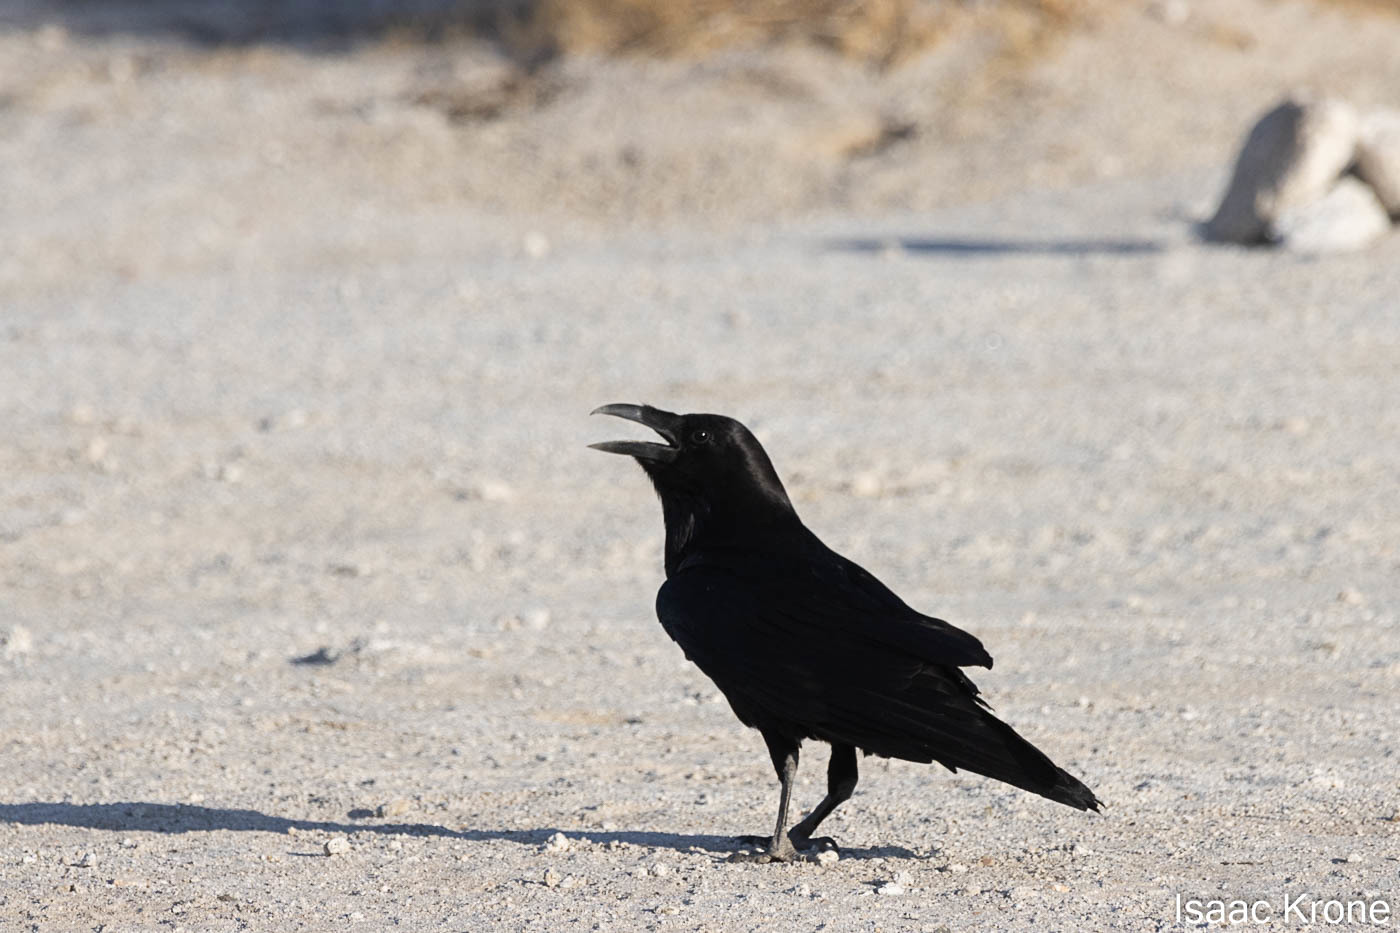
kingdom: Animalia
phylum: Chordata
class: Aves
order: Passeriformes
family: Corvidae
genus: Corvus
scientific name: Corvus corax
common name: Common raven
